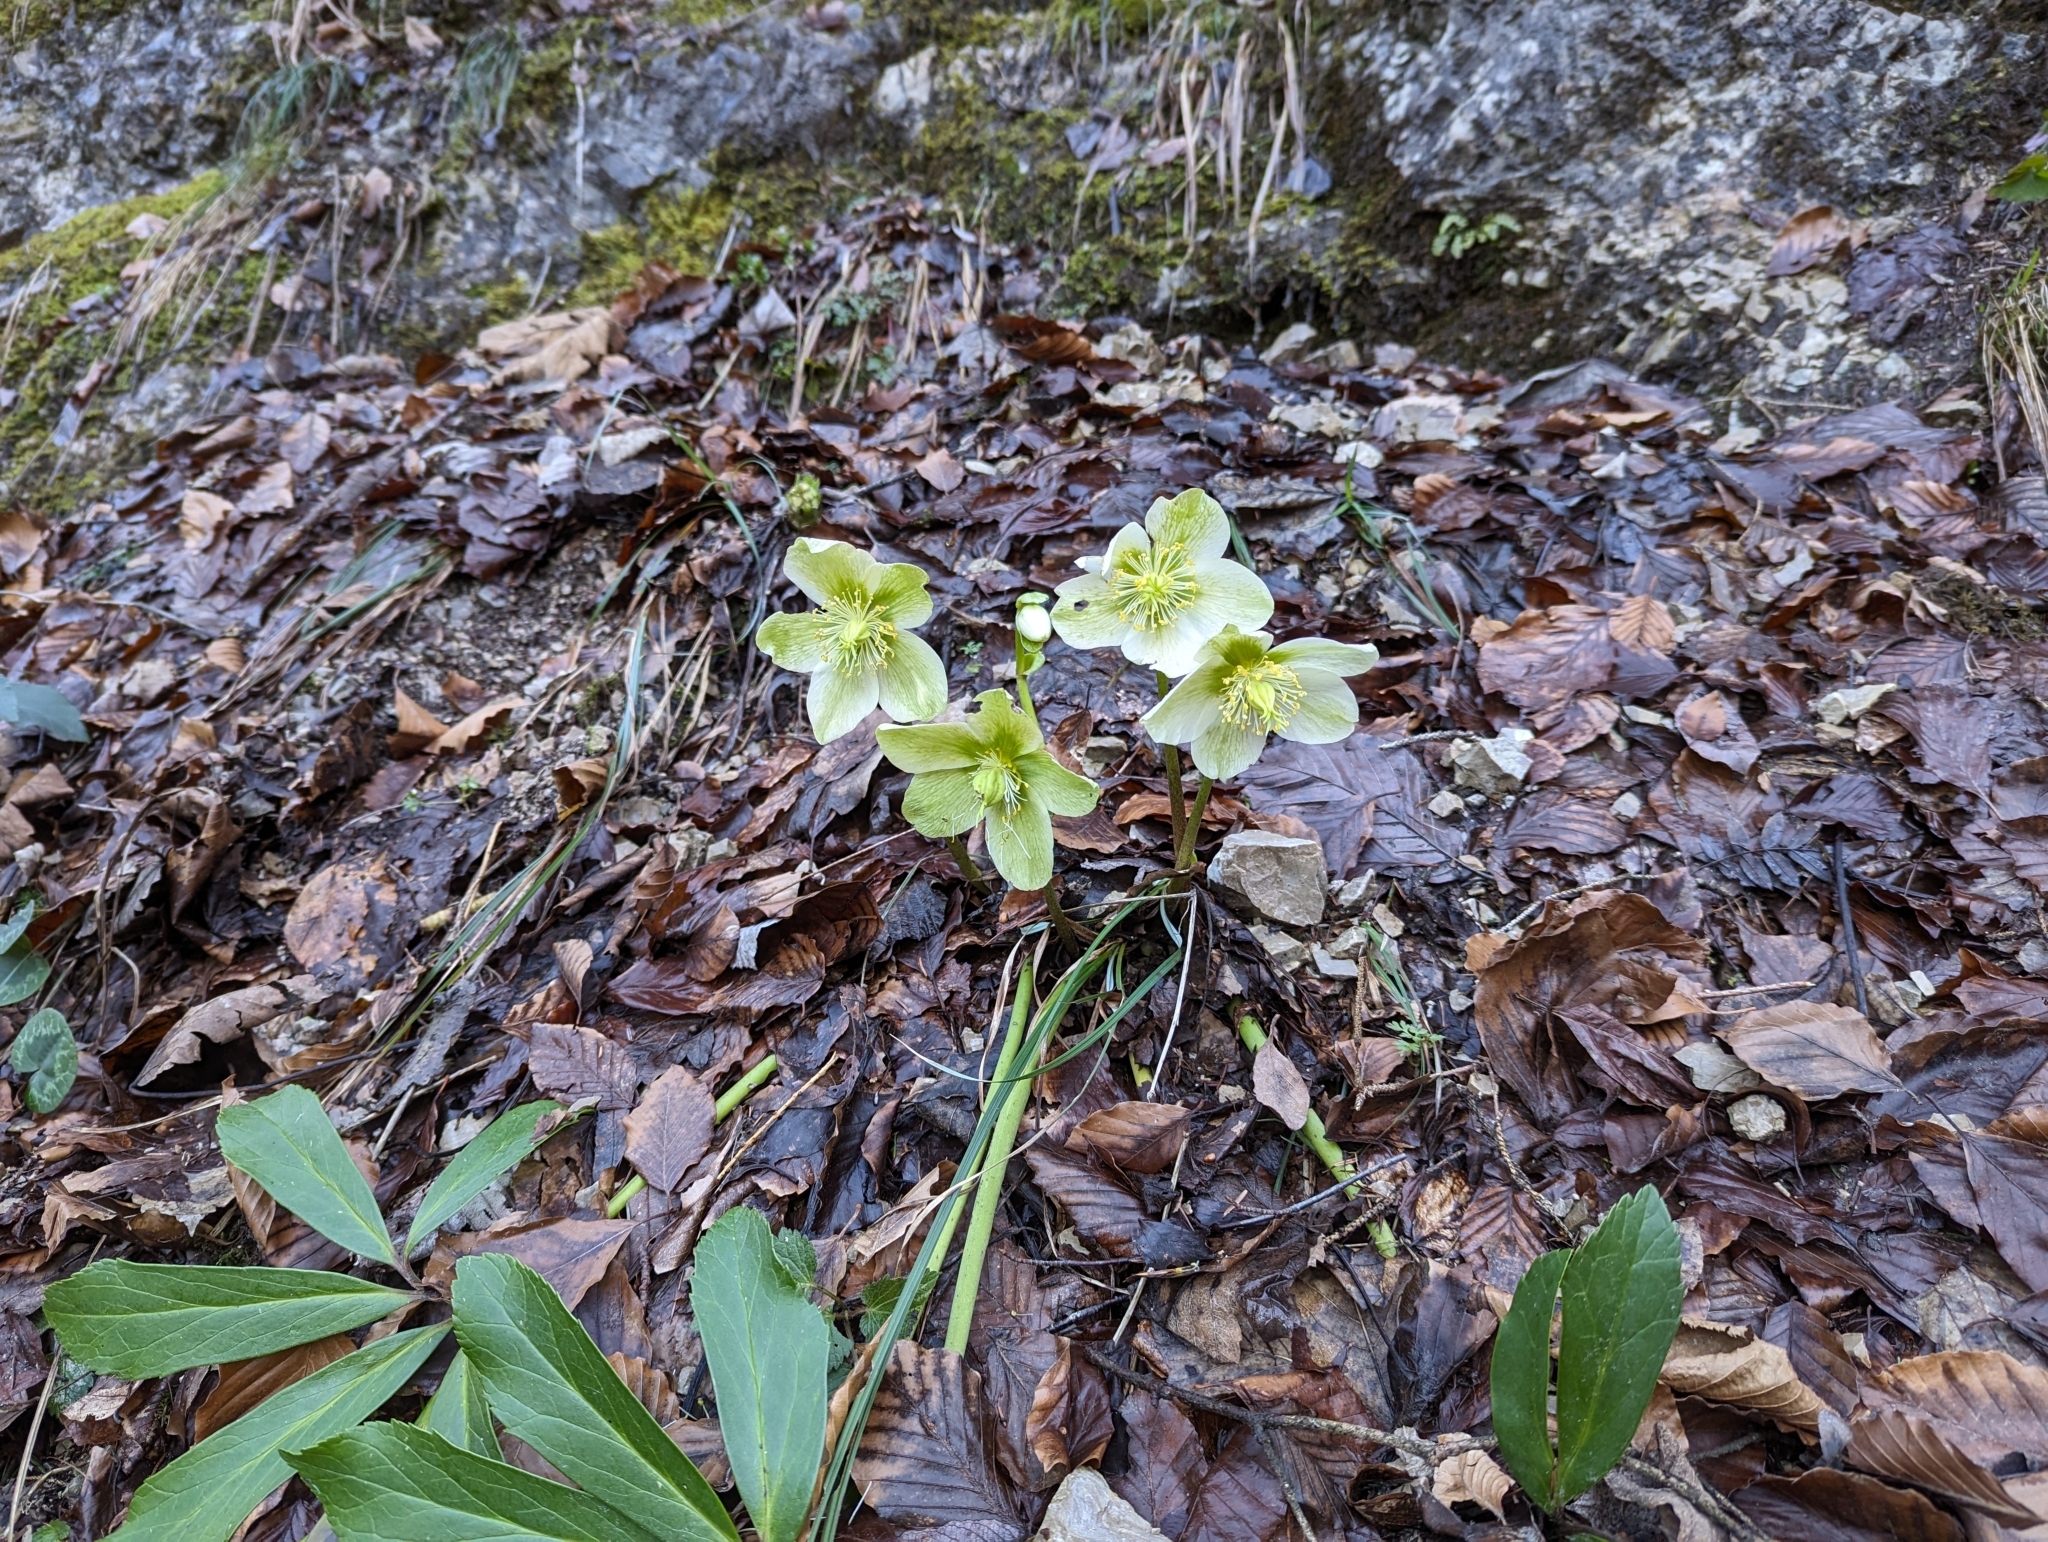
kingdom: Plantae
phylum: Tracheophyta
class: Magnoliopsida
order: Ranunculales
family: Ranunculaceae
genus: Helleborus
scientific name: Helleborus niger
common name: Black hellebore
